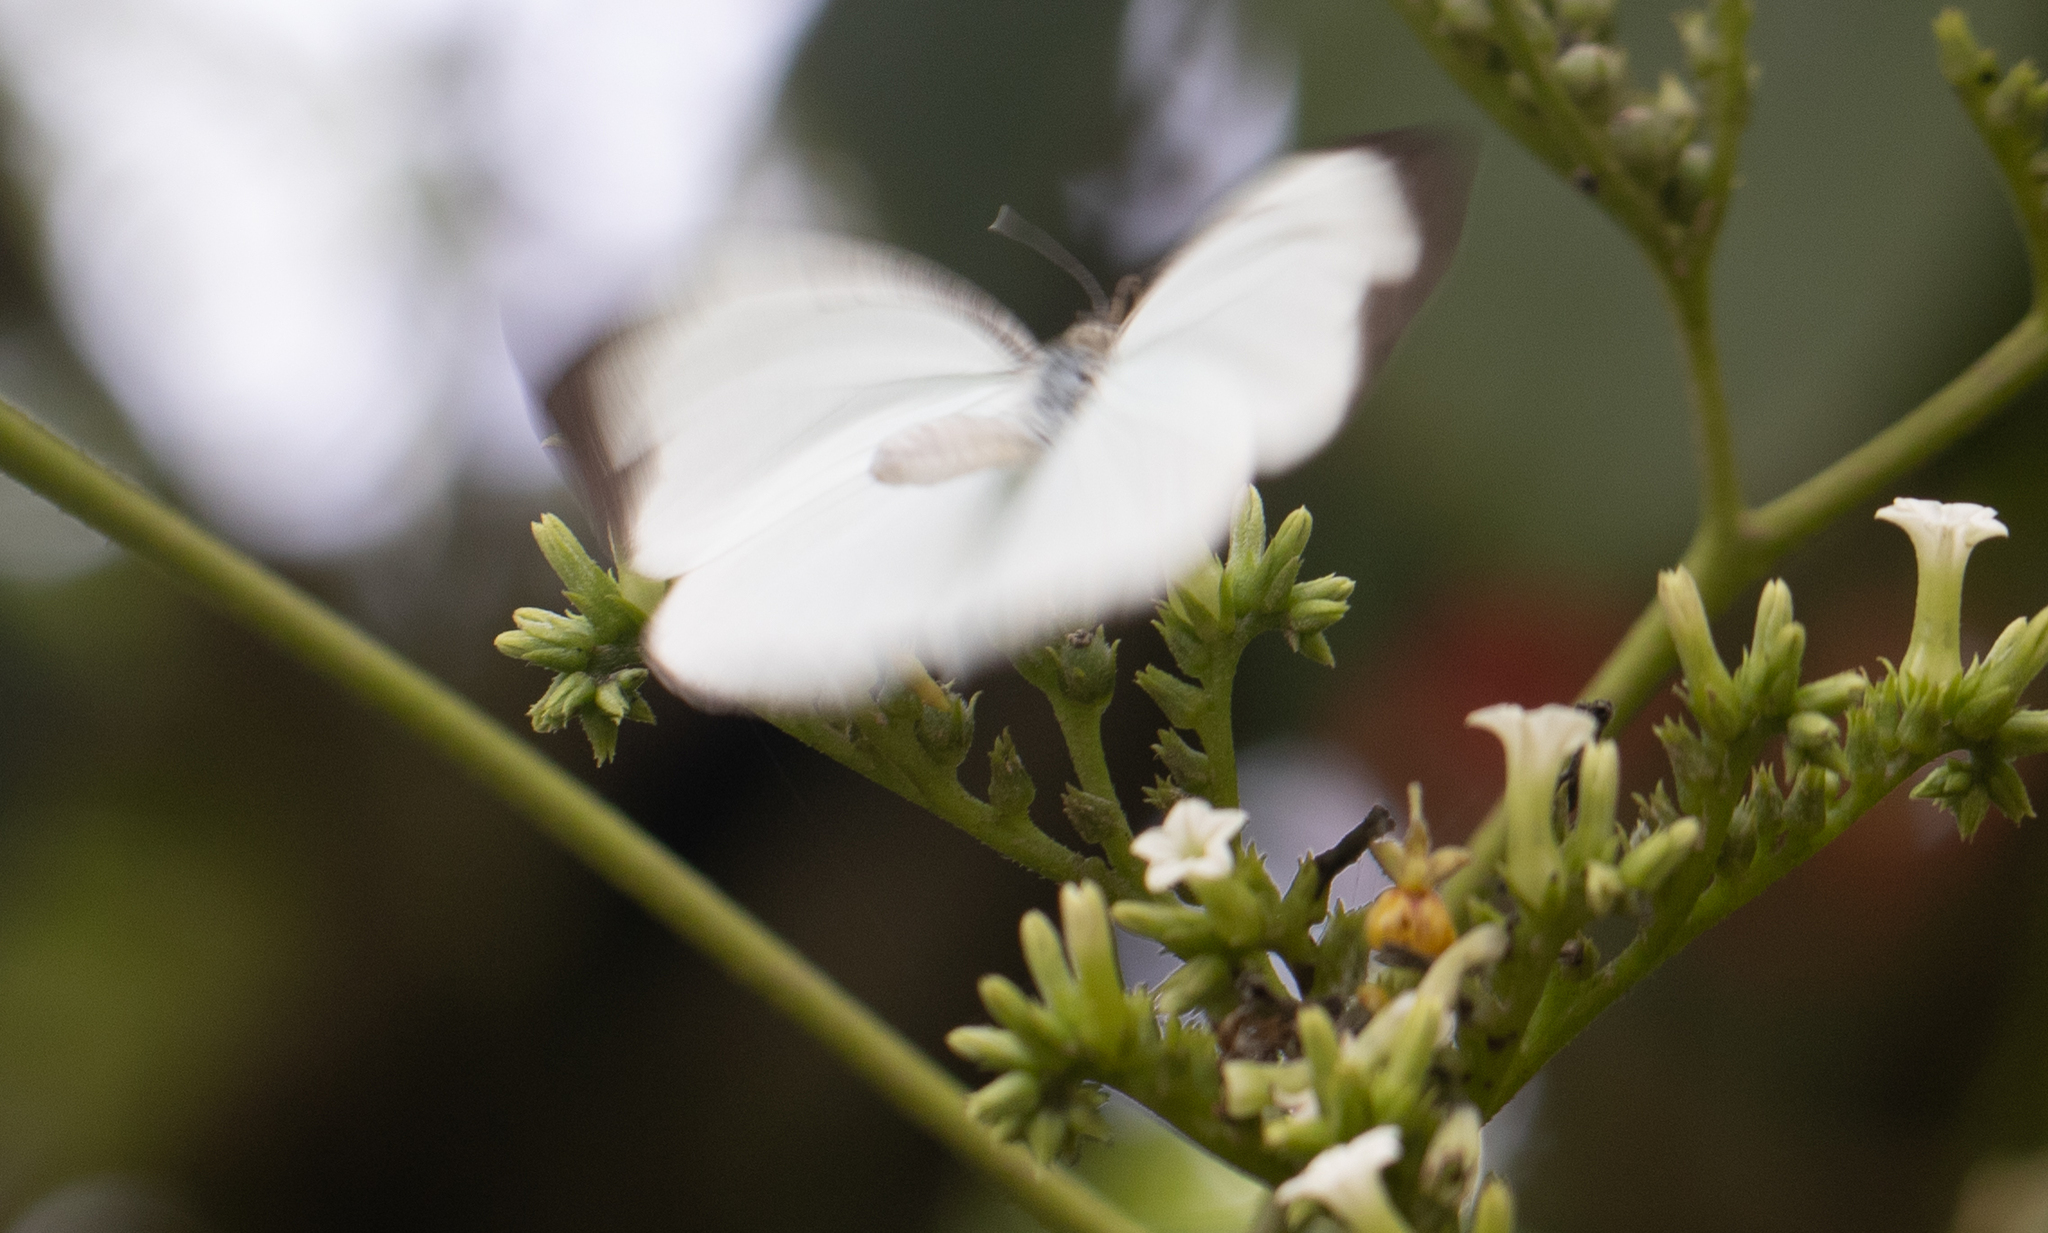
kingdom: Animalia
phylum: Arthropoda
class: Insecta
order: Lepidoptera
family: Pieridae
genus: Itaballia
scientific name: Itaballia demophile
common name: Cross-barred white
